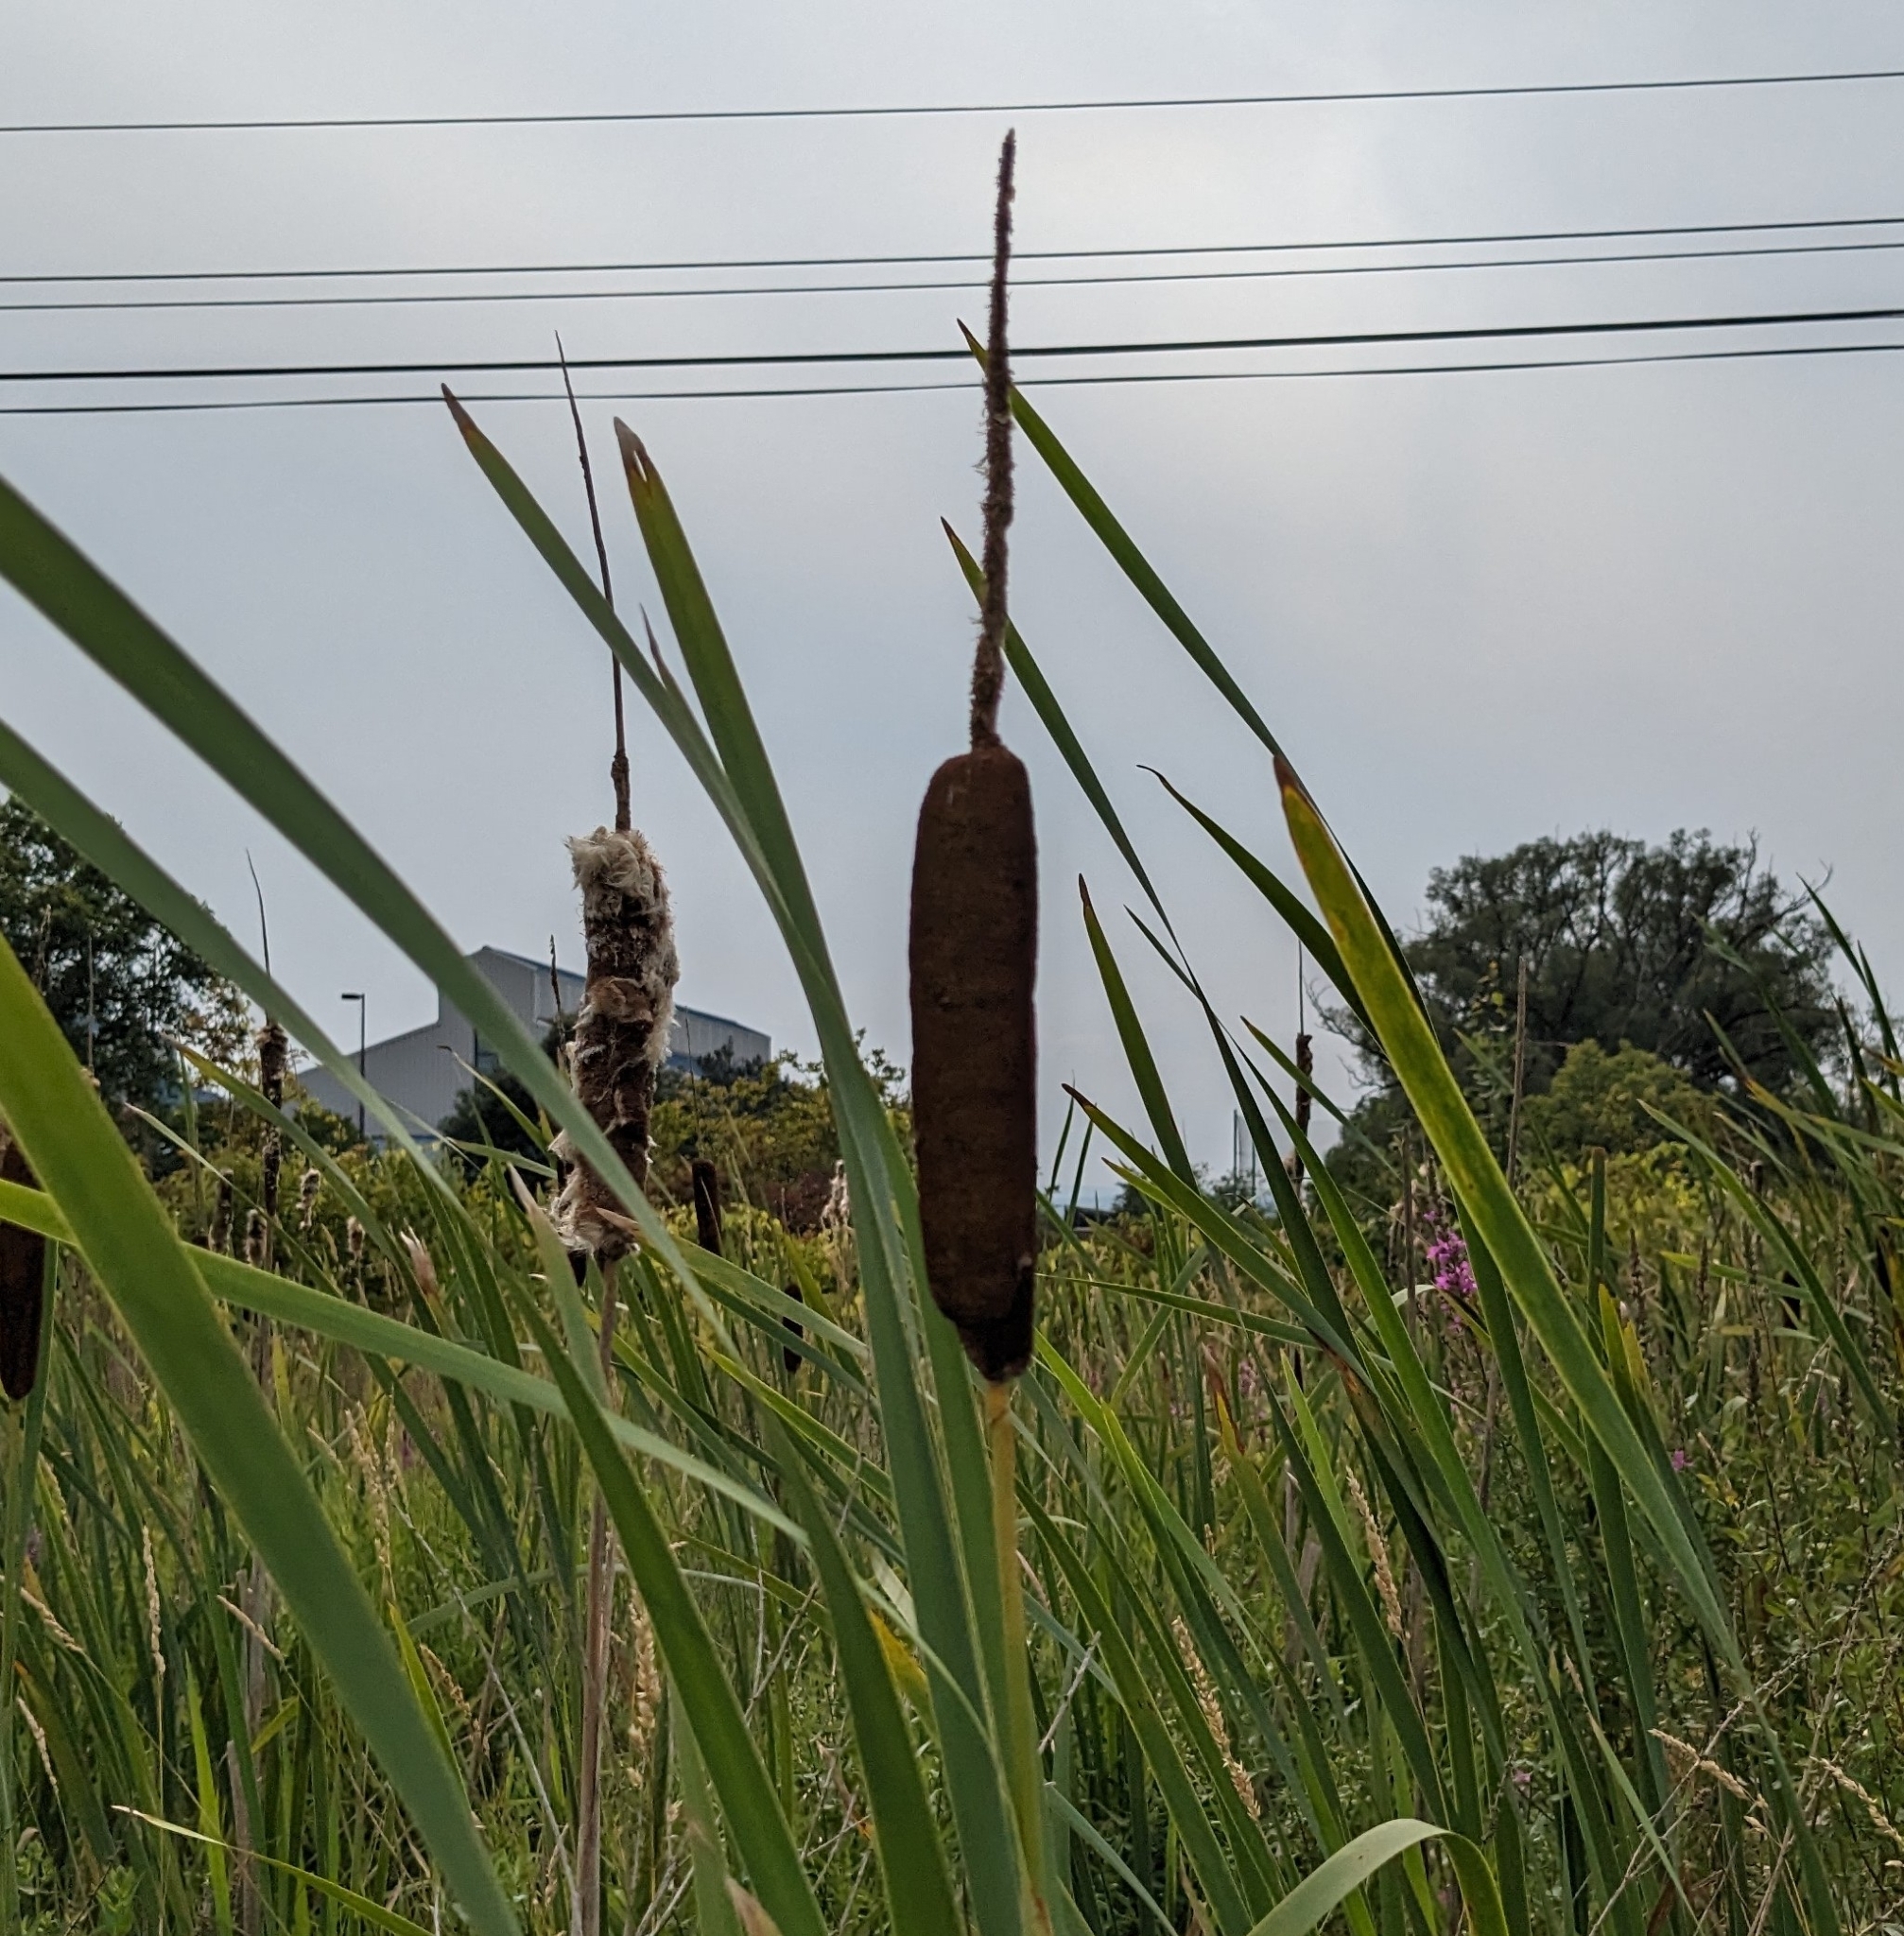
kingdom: Plantae
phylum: Tracheophyta
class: Liliopsida
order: Poales
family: Typhaceae
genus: Typha
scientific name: Typha latifolia
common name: Broadleaf cattail
